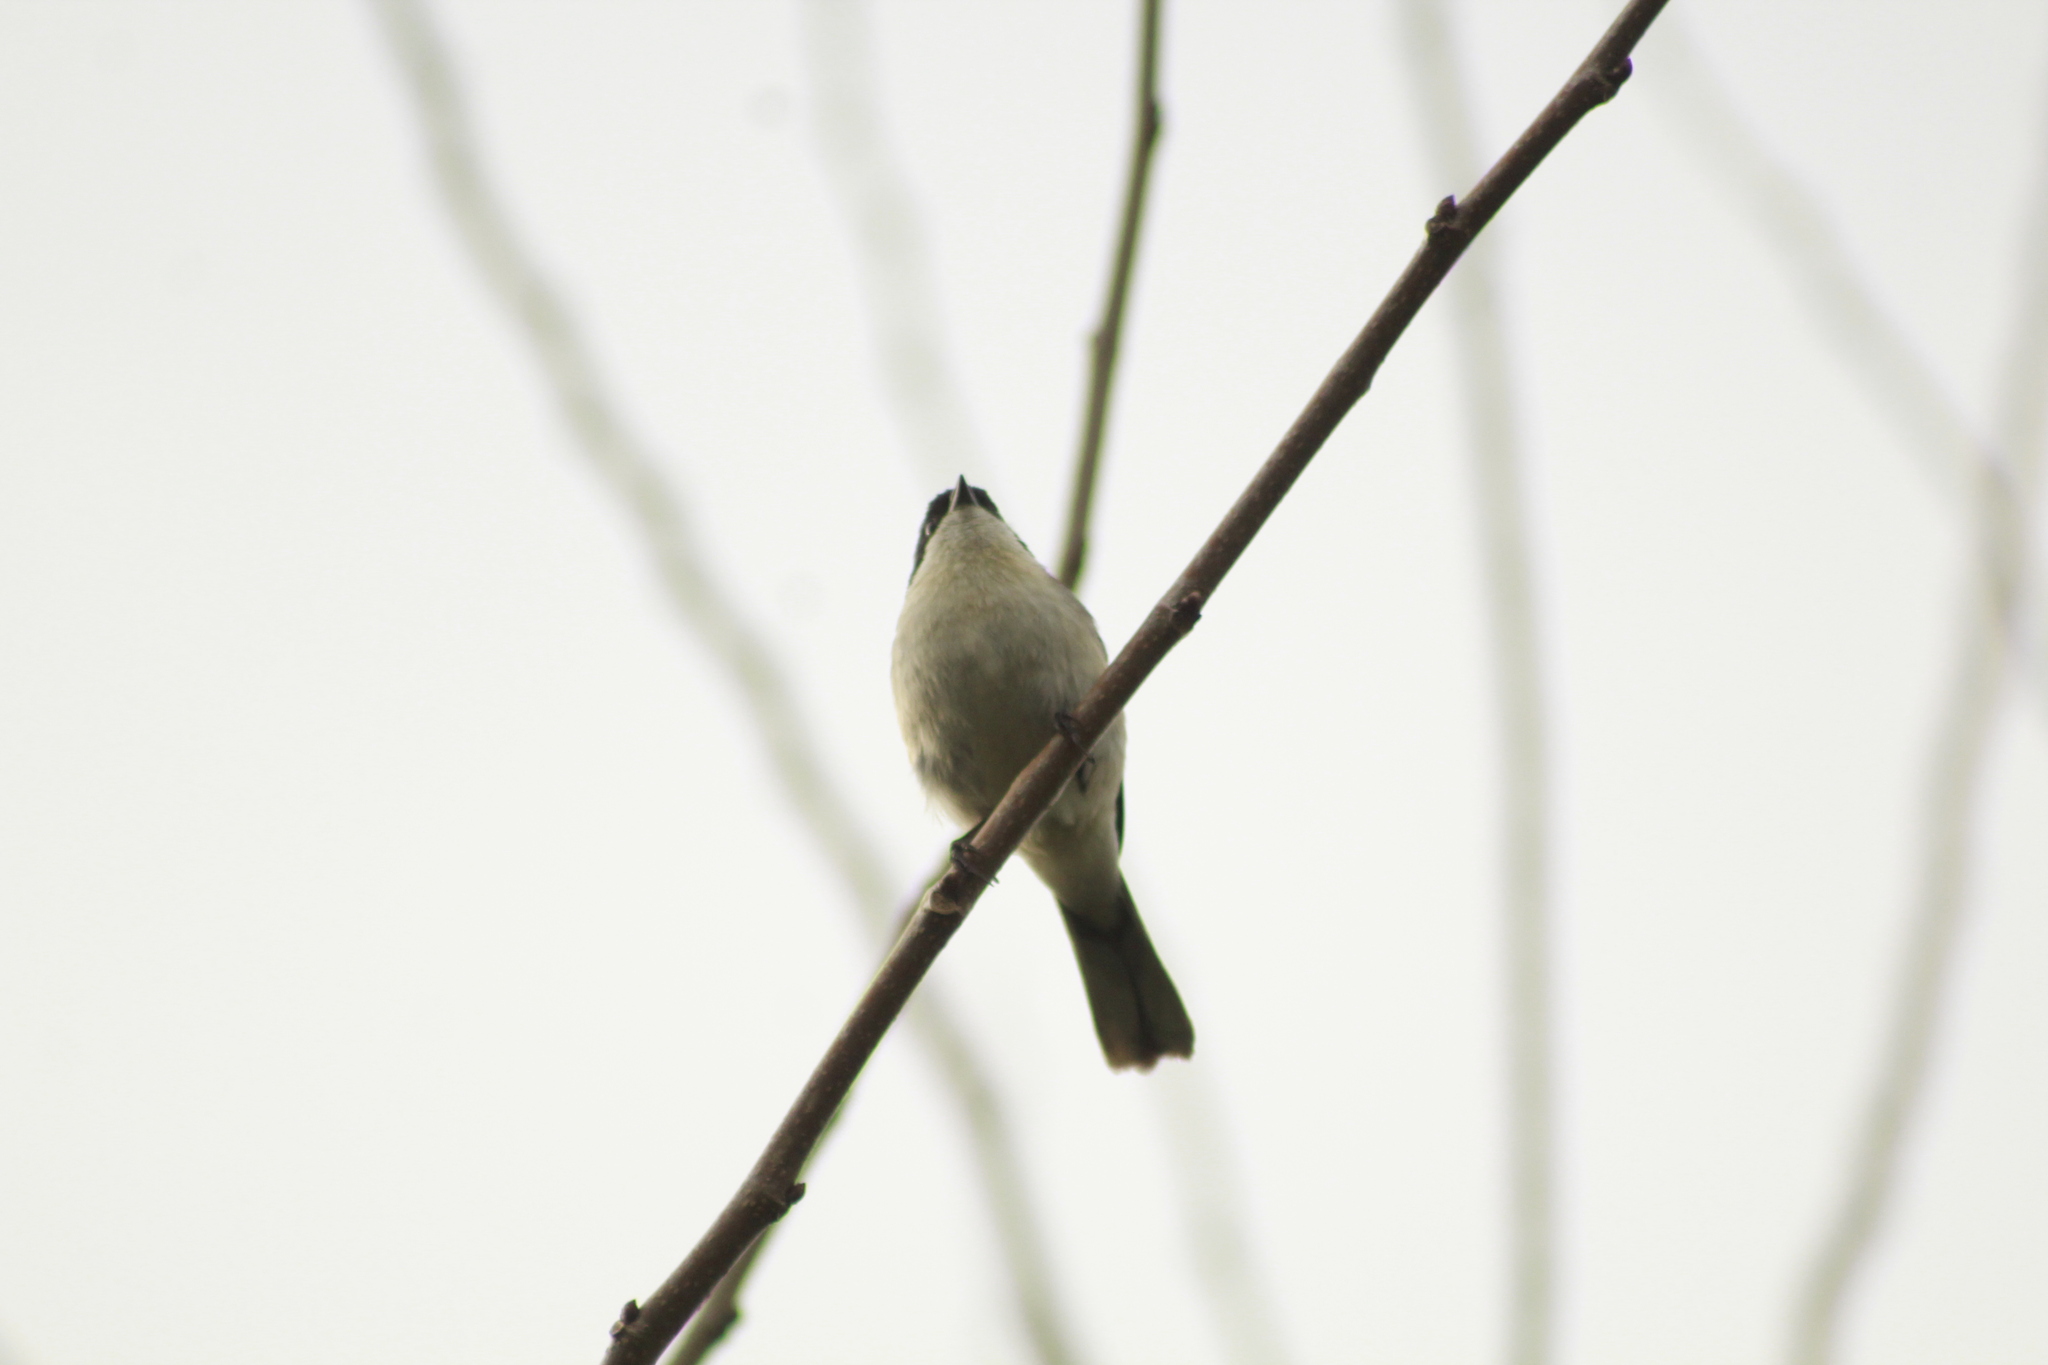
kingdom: Animalia
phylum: Chordata
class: Aves
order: Passeriformes
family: Thraupidae
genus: Microspingus
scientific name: Microspingus melanoleucus
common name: Black-capped warbling-finch
